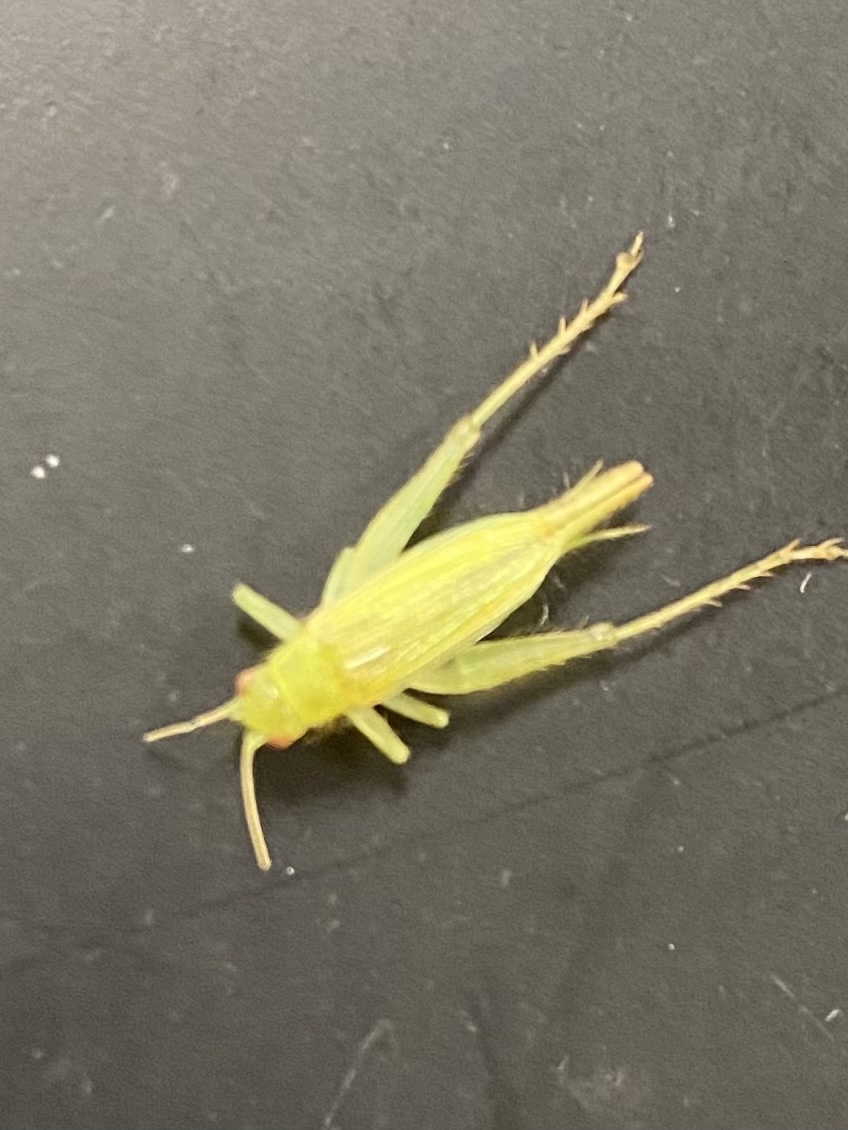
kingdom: Animalia
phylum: Arthropoda
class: Insecta
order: Orthoptera
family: Trigonidiidae
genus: Cyrtoxipha
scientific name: Cyrtoxipha columbiana
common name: Columbian trig
